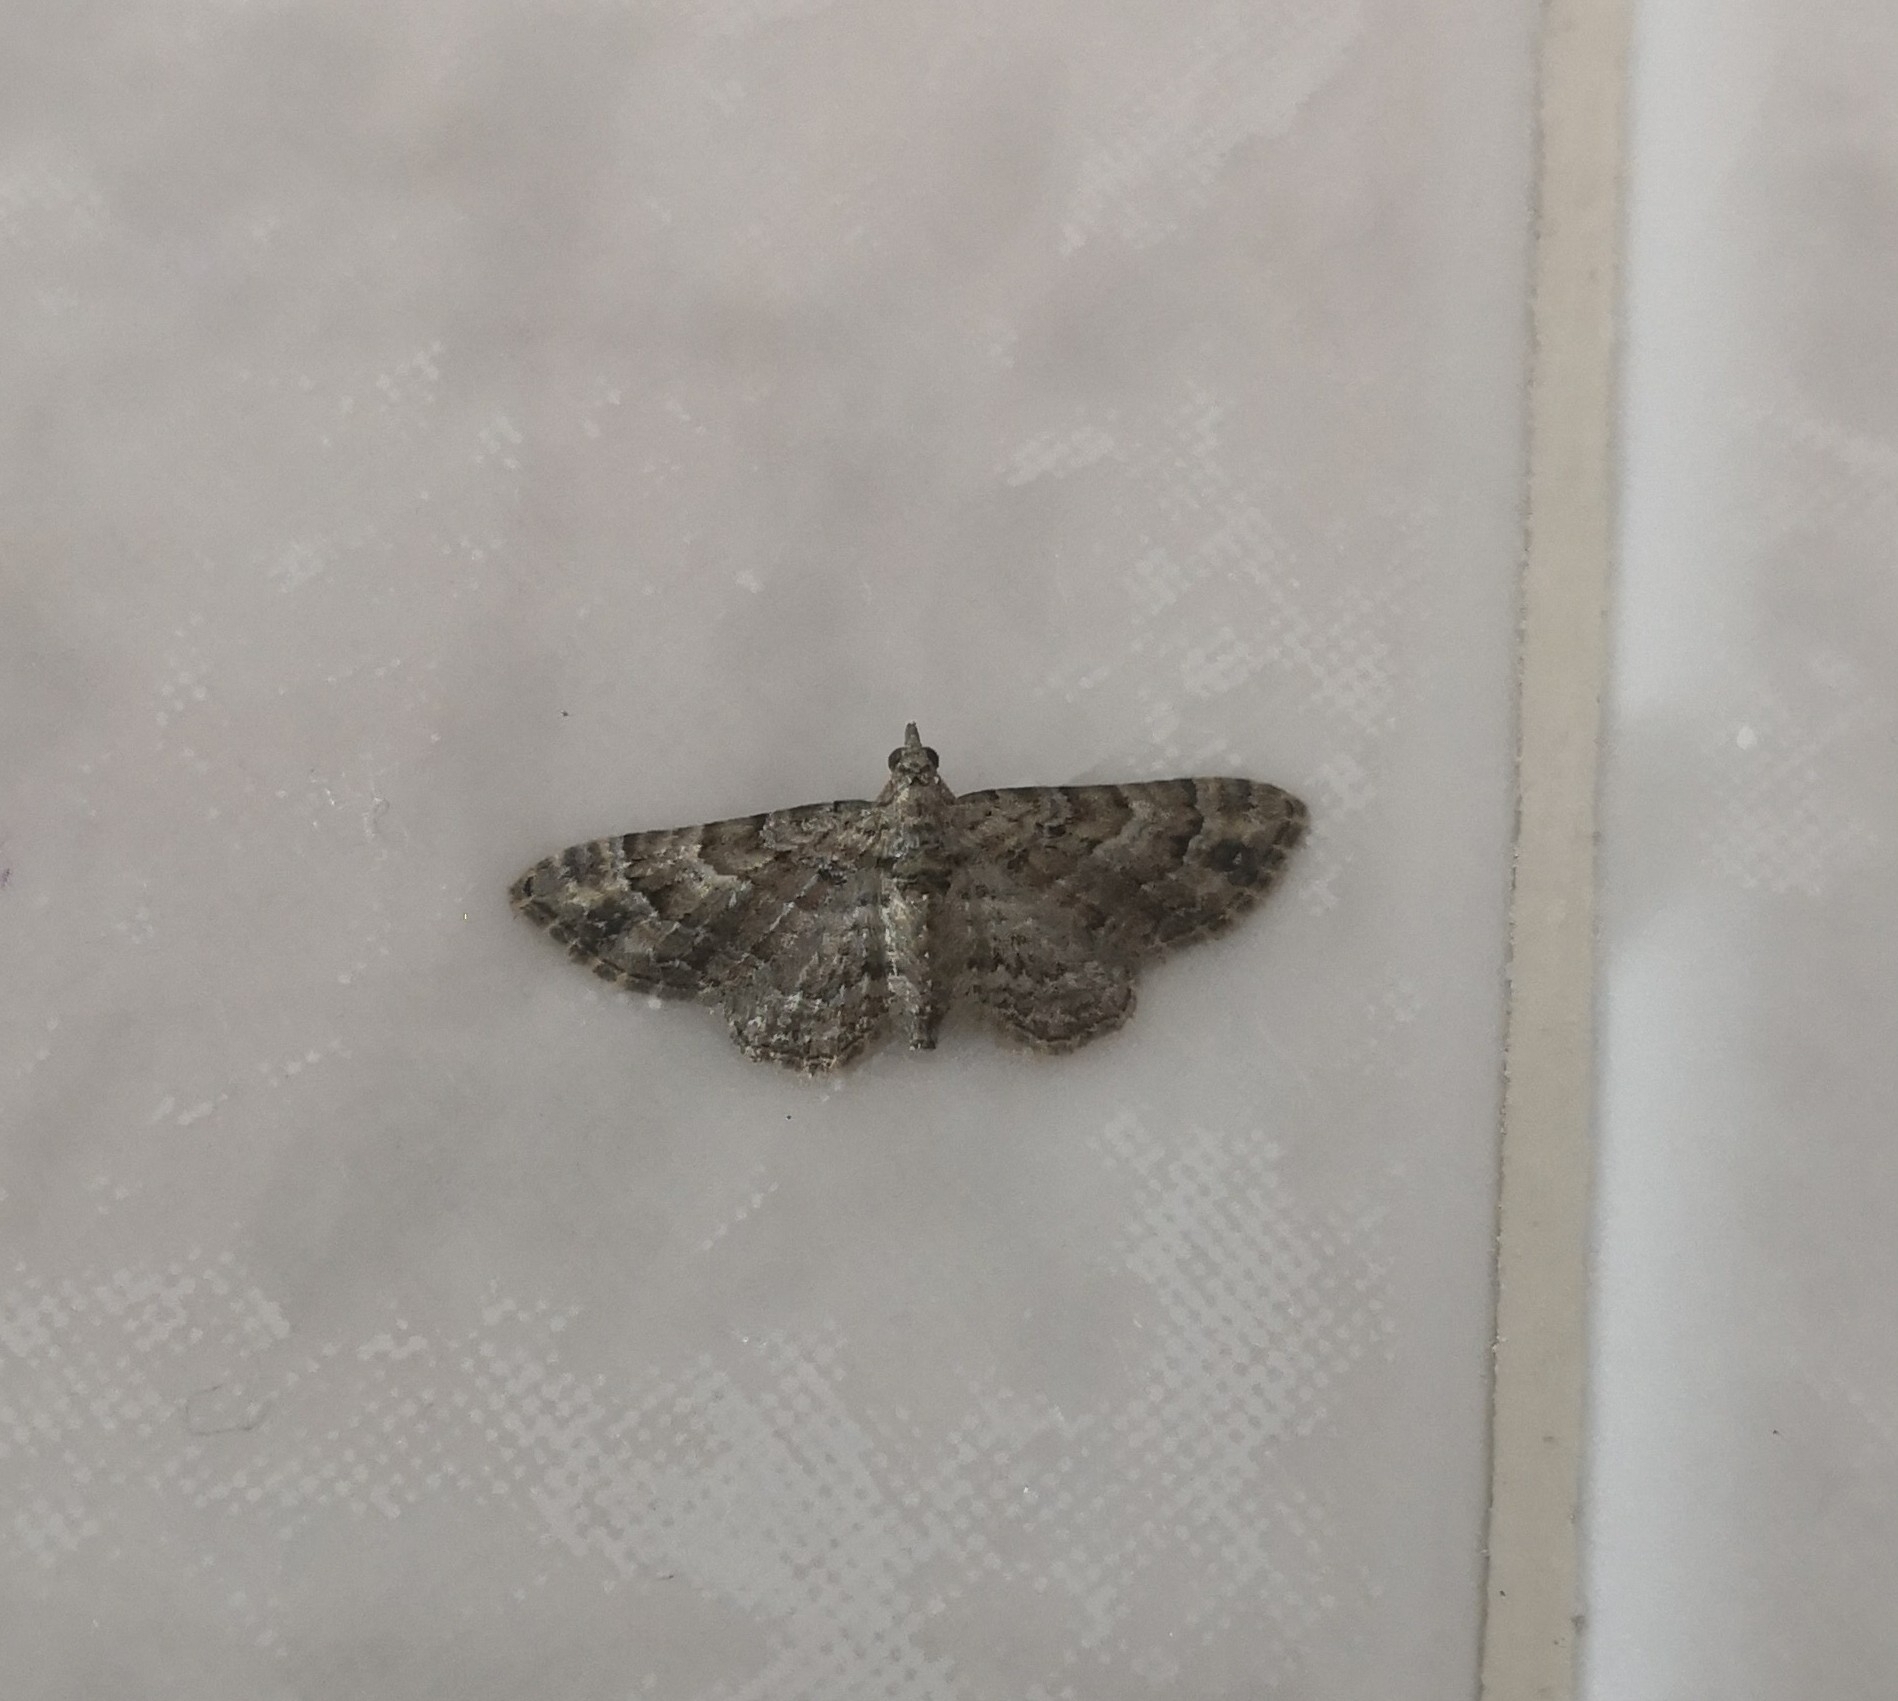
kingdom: Animalia
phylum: Arthropoda
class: Insecta
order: Lepidoptera
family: Geometridae
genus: Gymnoscelis
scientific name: Gymnoscelis rufifasciata
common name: Double-striped pug
